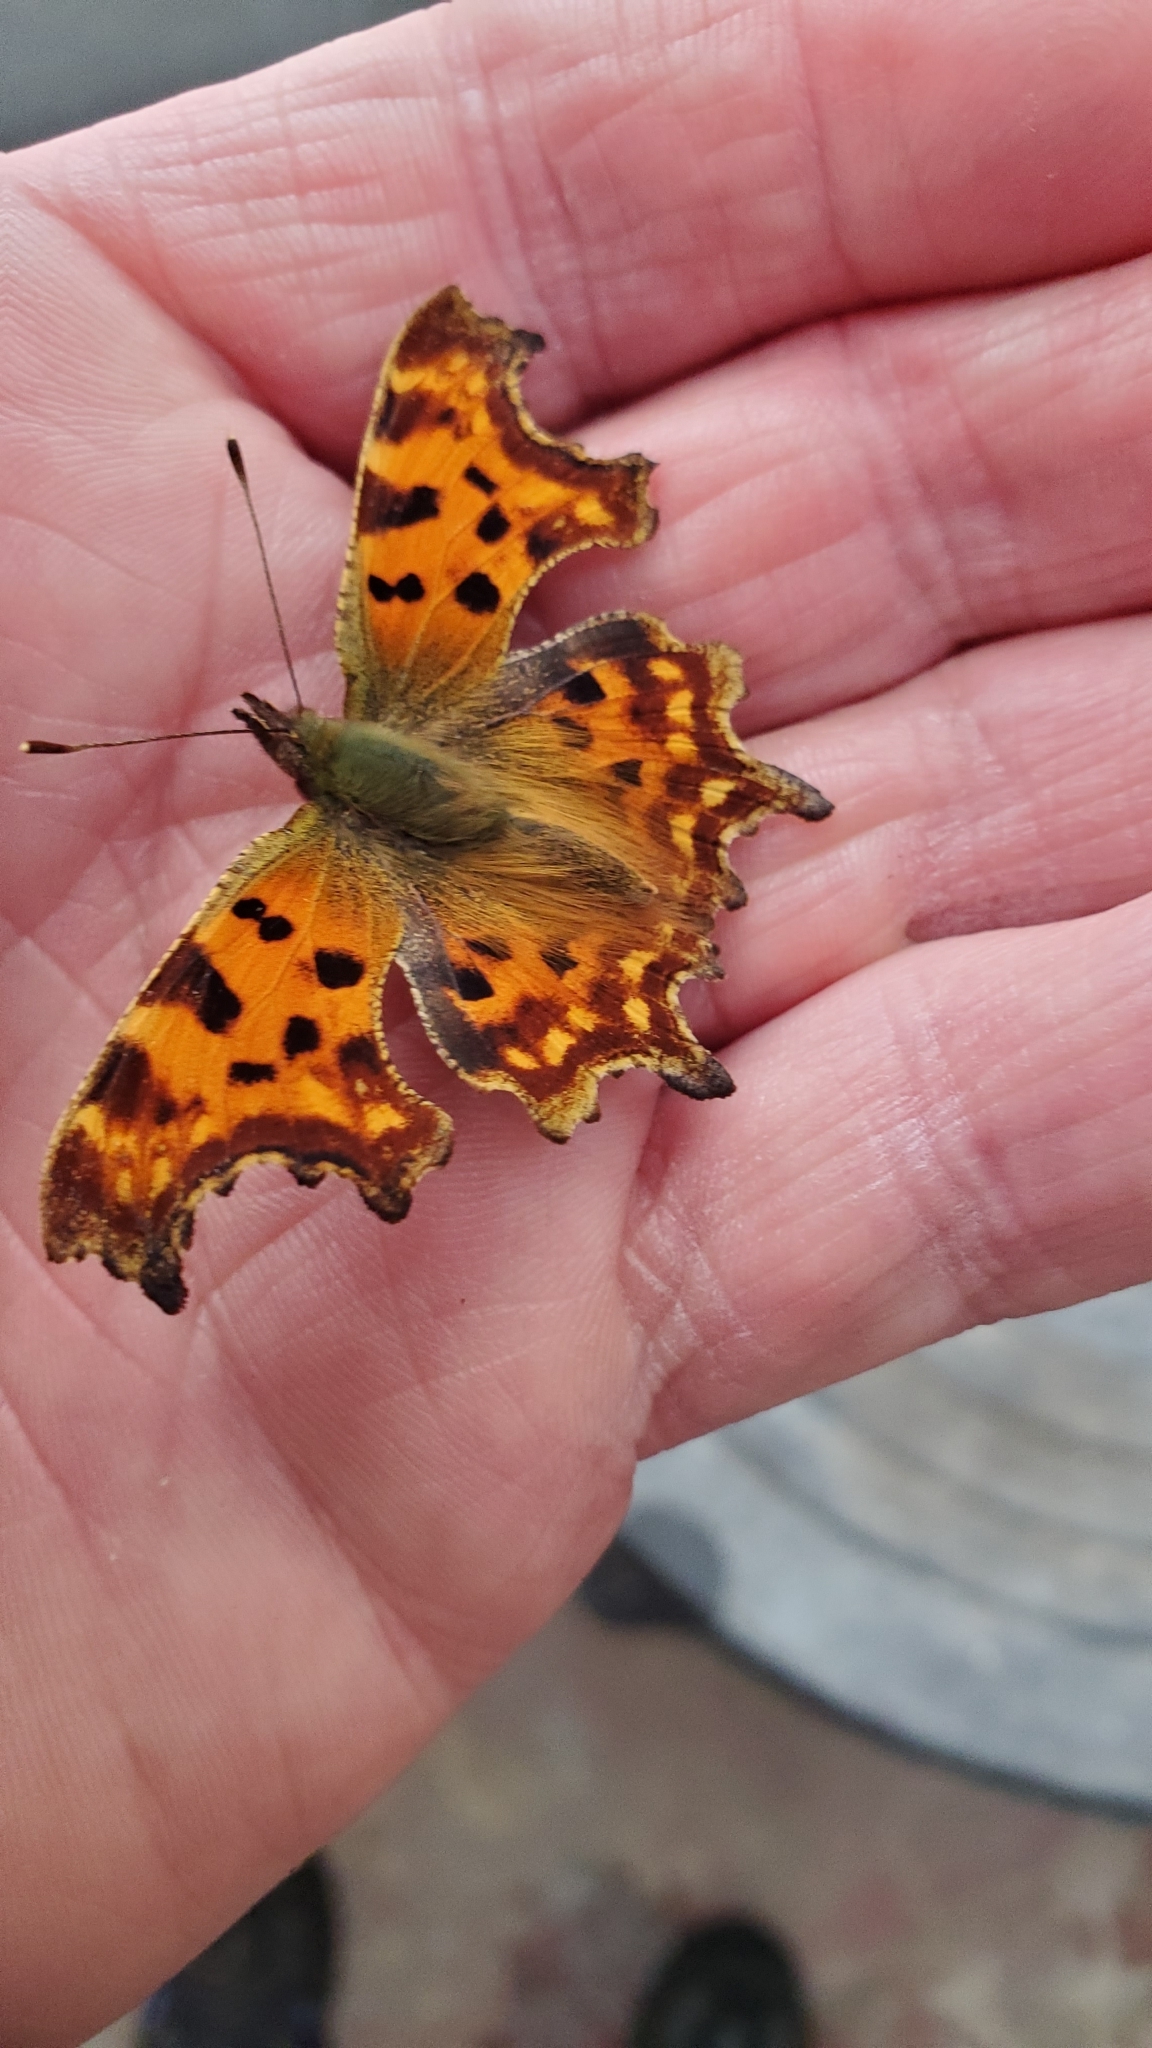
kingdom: Animalia
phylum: Arthropoda
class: Insecta
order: Lepidoptera
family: Nymphalidae
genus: Polygonia
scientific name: Polygonia c-album
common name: Comma
